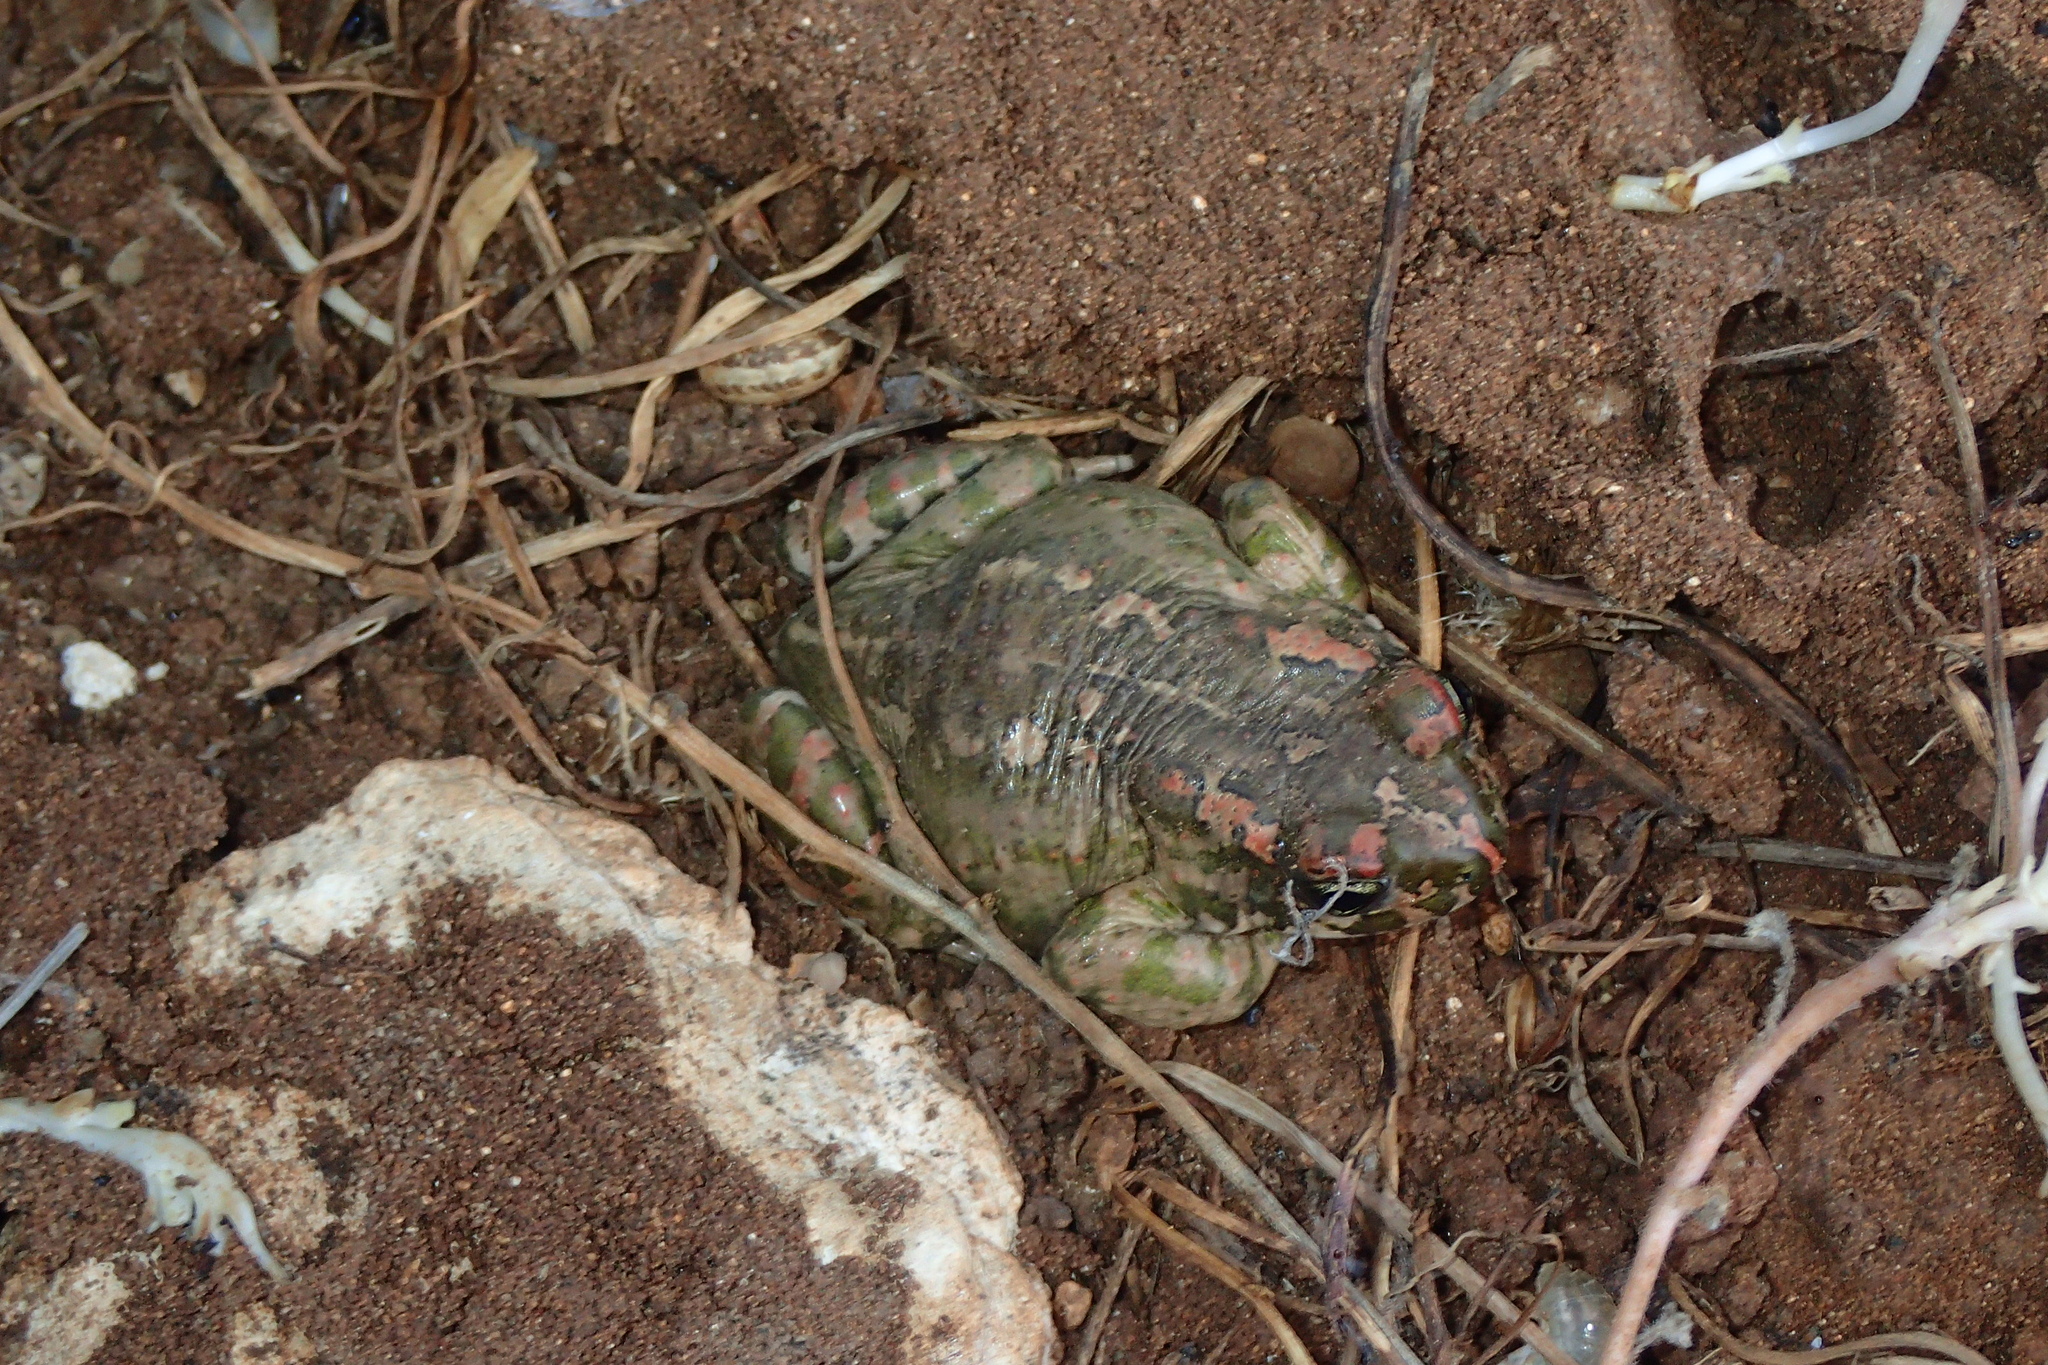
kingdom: Animalia
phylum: Chordata
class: Amphibia
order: Anura
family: Bufonidae
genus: Bufotes
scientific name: Bufotes cypriensis
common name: Cyprus green toad
